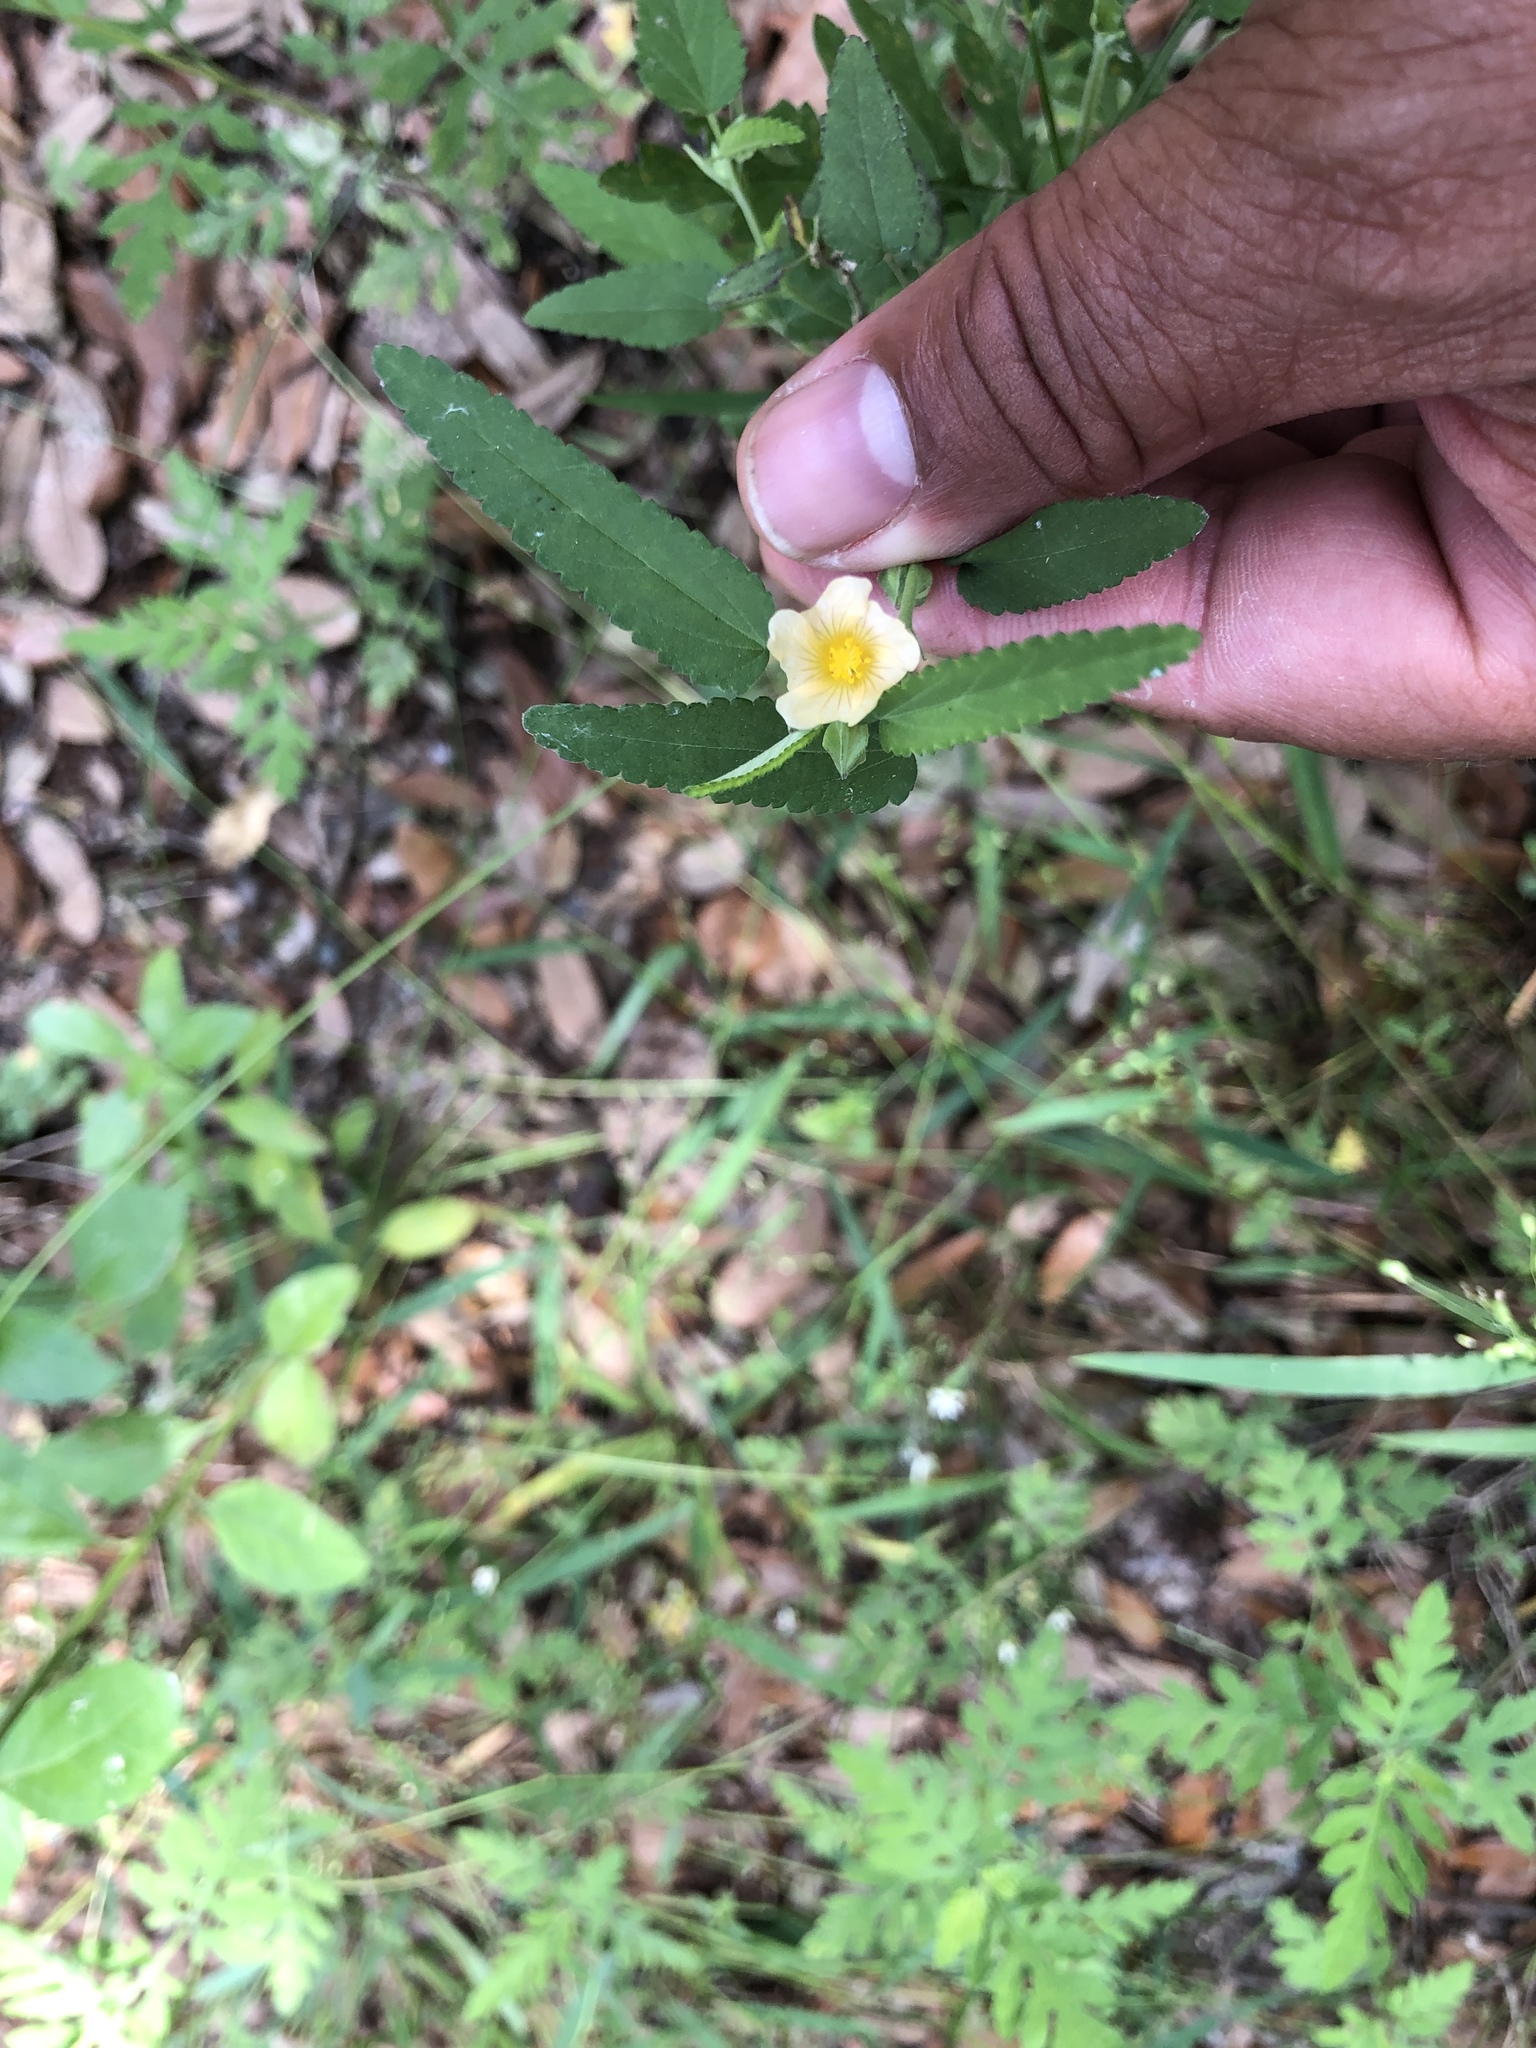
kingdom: Plantae
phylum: Tracheophyta
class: Magnoliopsida
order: Malvales
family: Malvaceae
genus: Sida
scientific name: Sida lindheimeri
